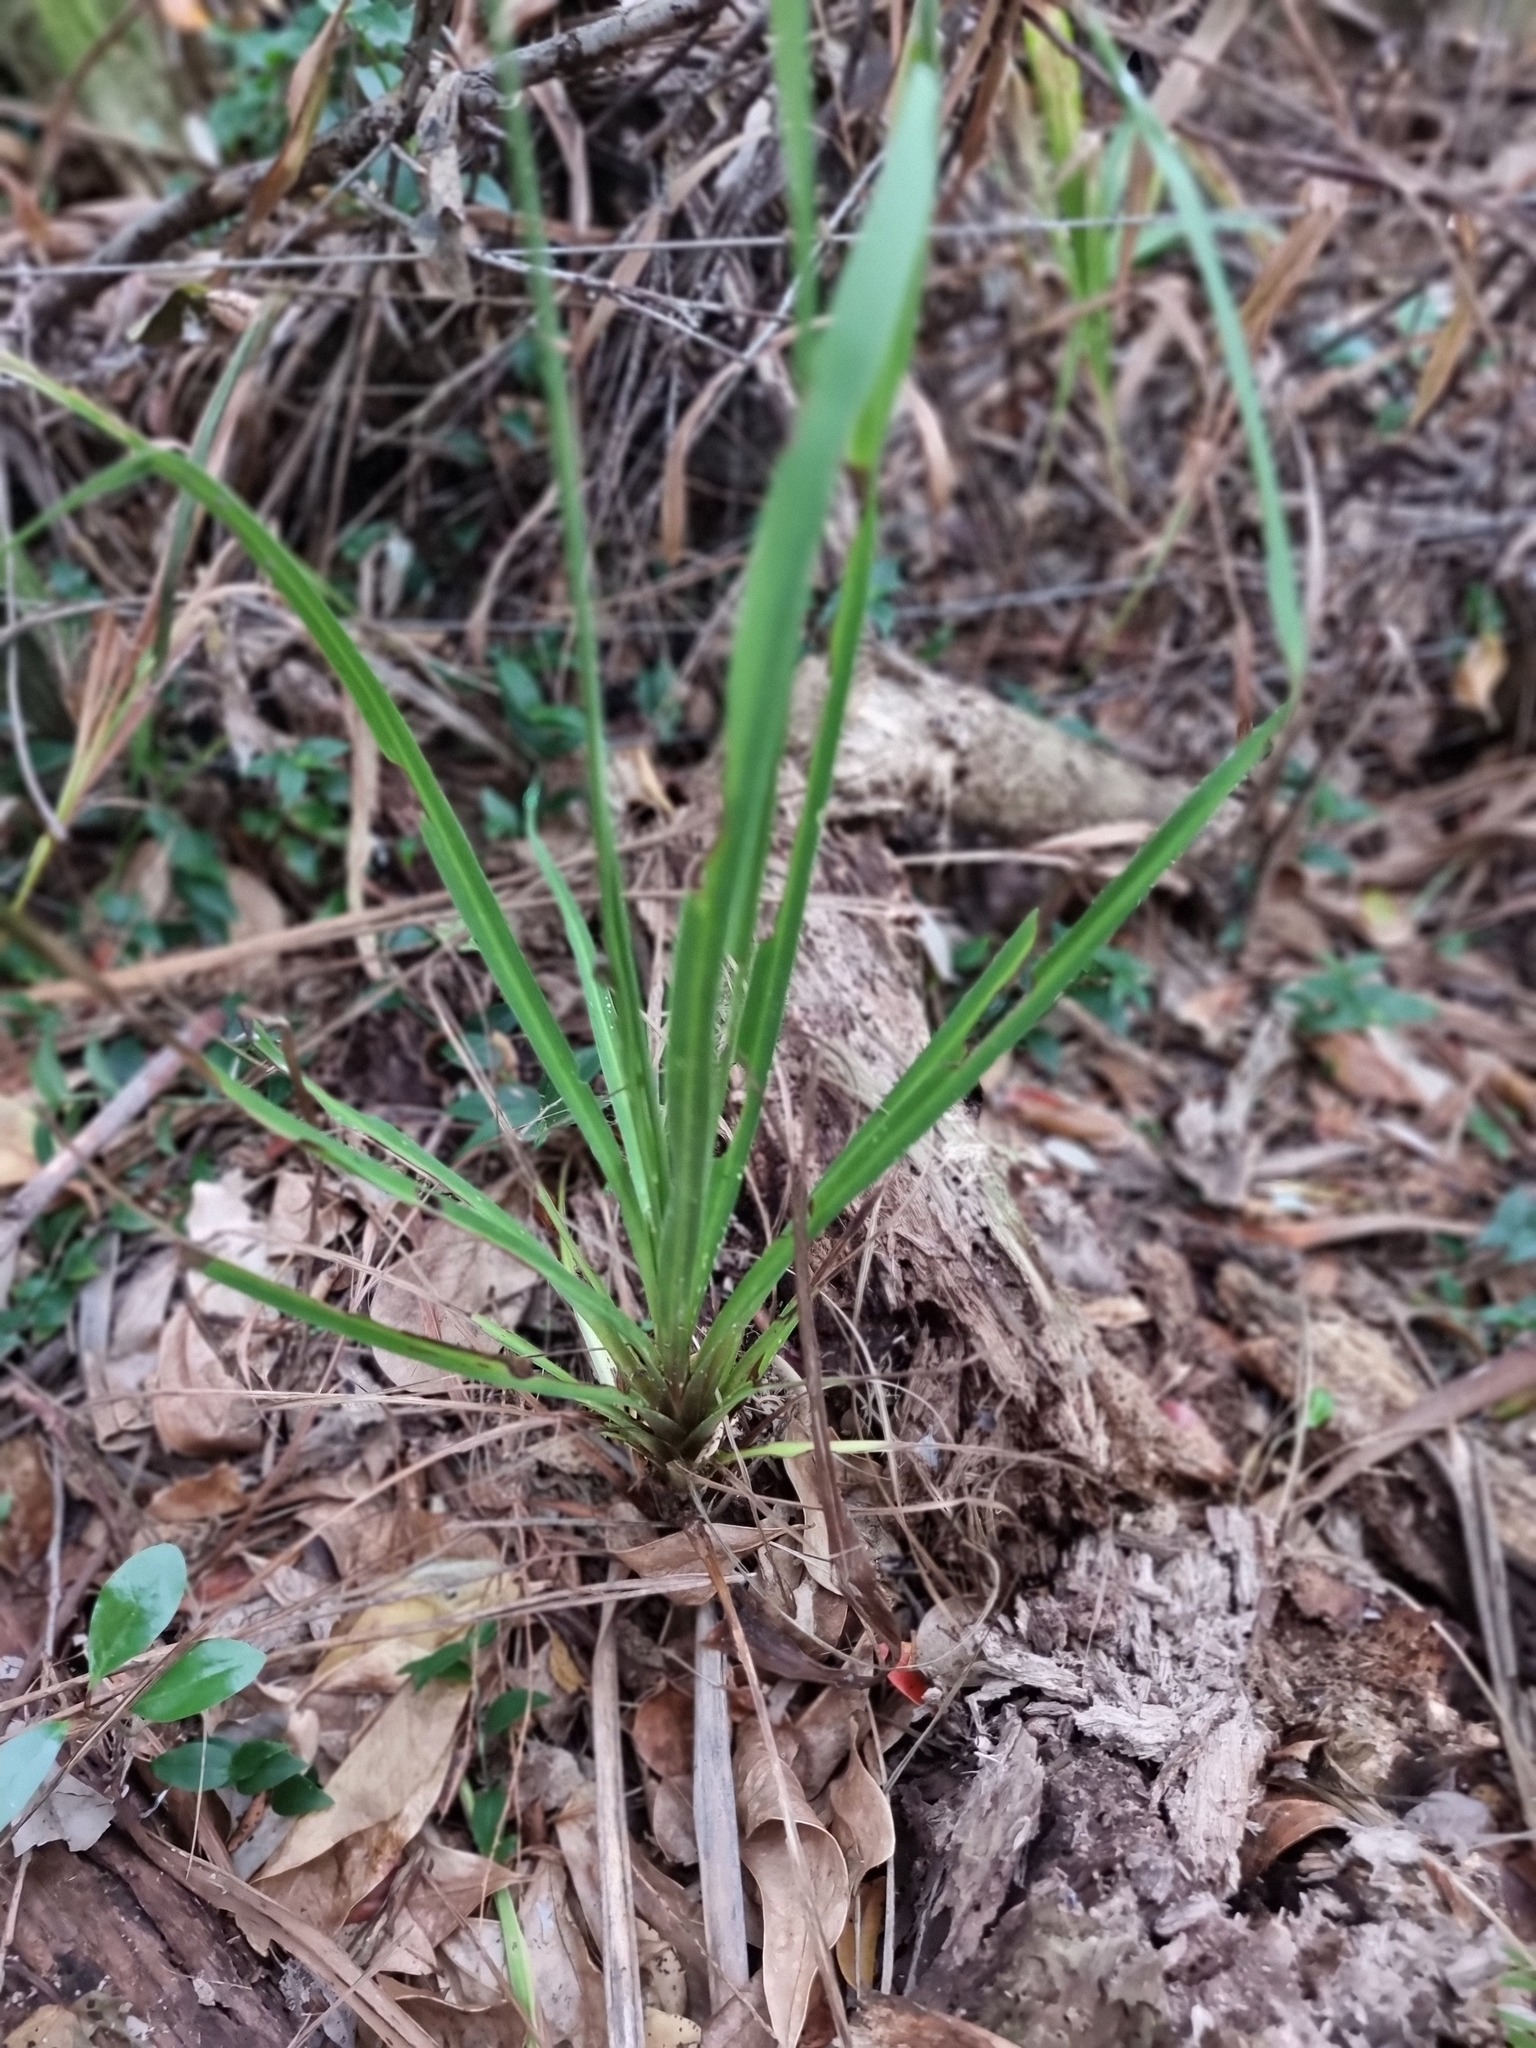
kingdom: Plantae
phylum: Tracheophyta
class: Liliopsida
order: Asparagales
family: Asparagaceae
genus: Cordyline
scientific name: Cordyline australis
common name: Cabbage-palm
